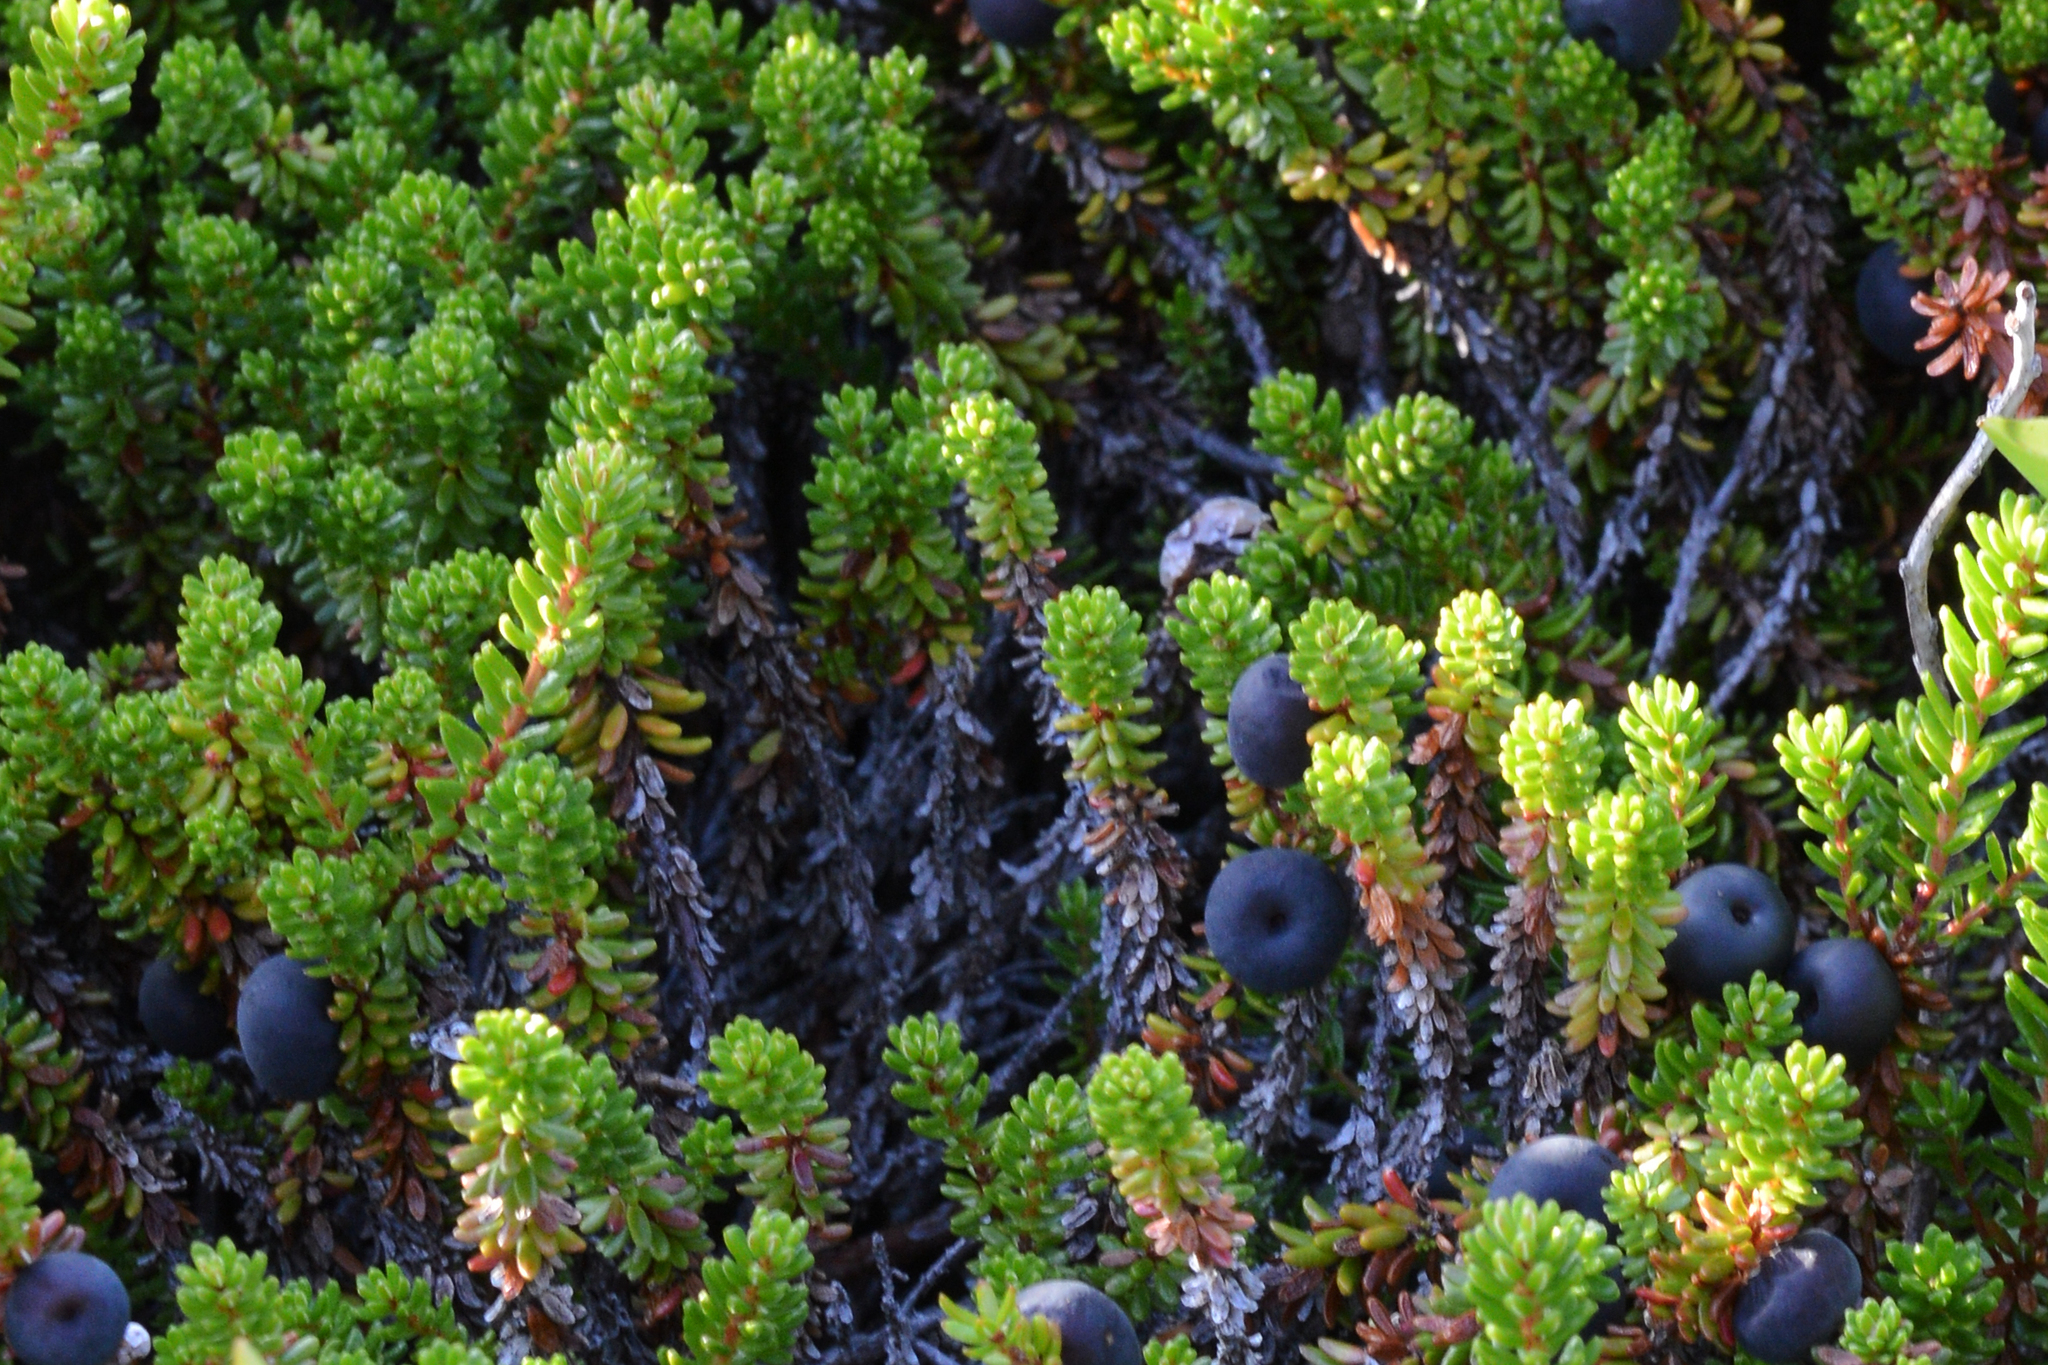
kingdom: Plantae
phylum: Tracheophyta
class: Magnoliopsida
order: Ericales
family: Ericaceae
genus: Empetrum
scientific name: Empetrum nigrum
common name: Black crowberry
